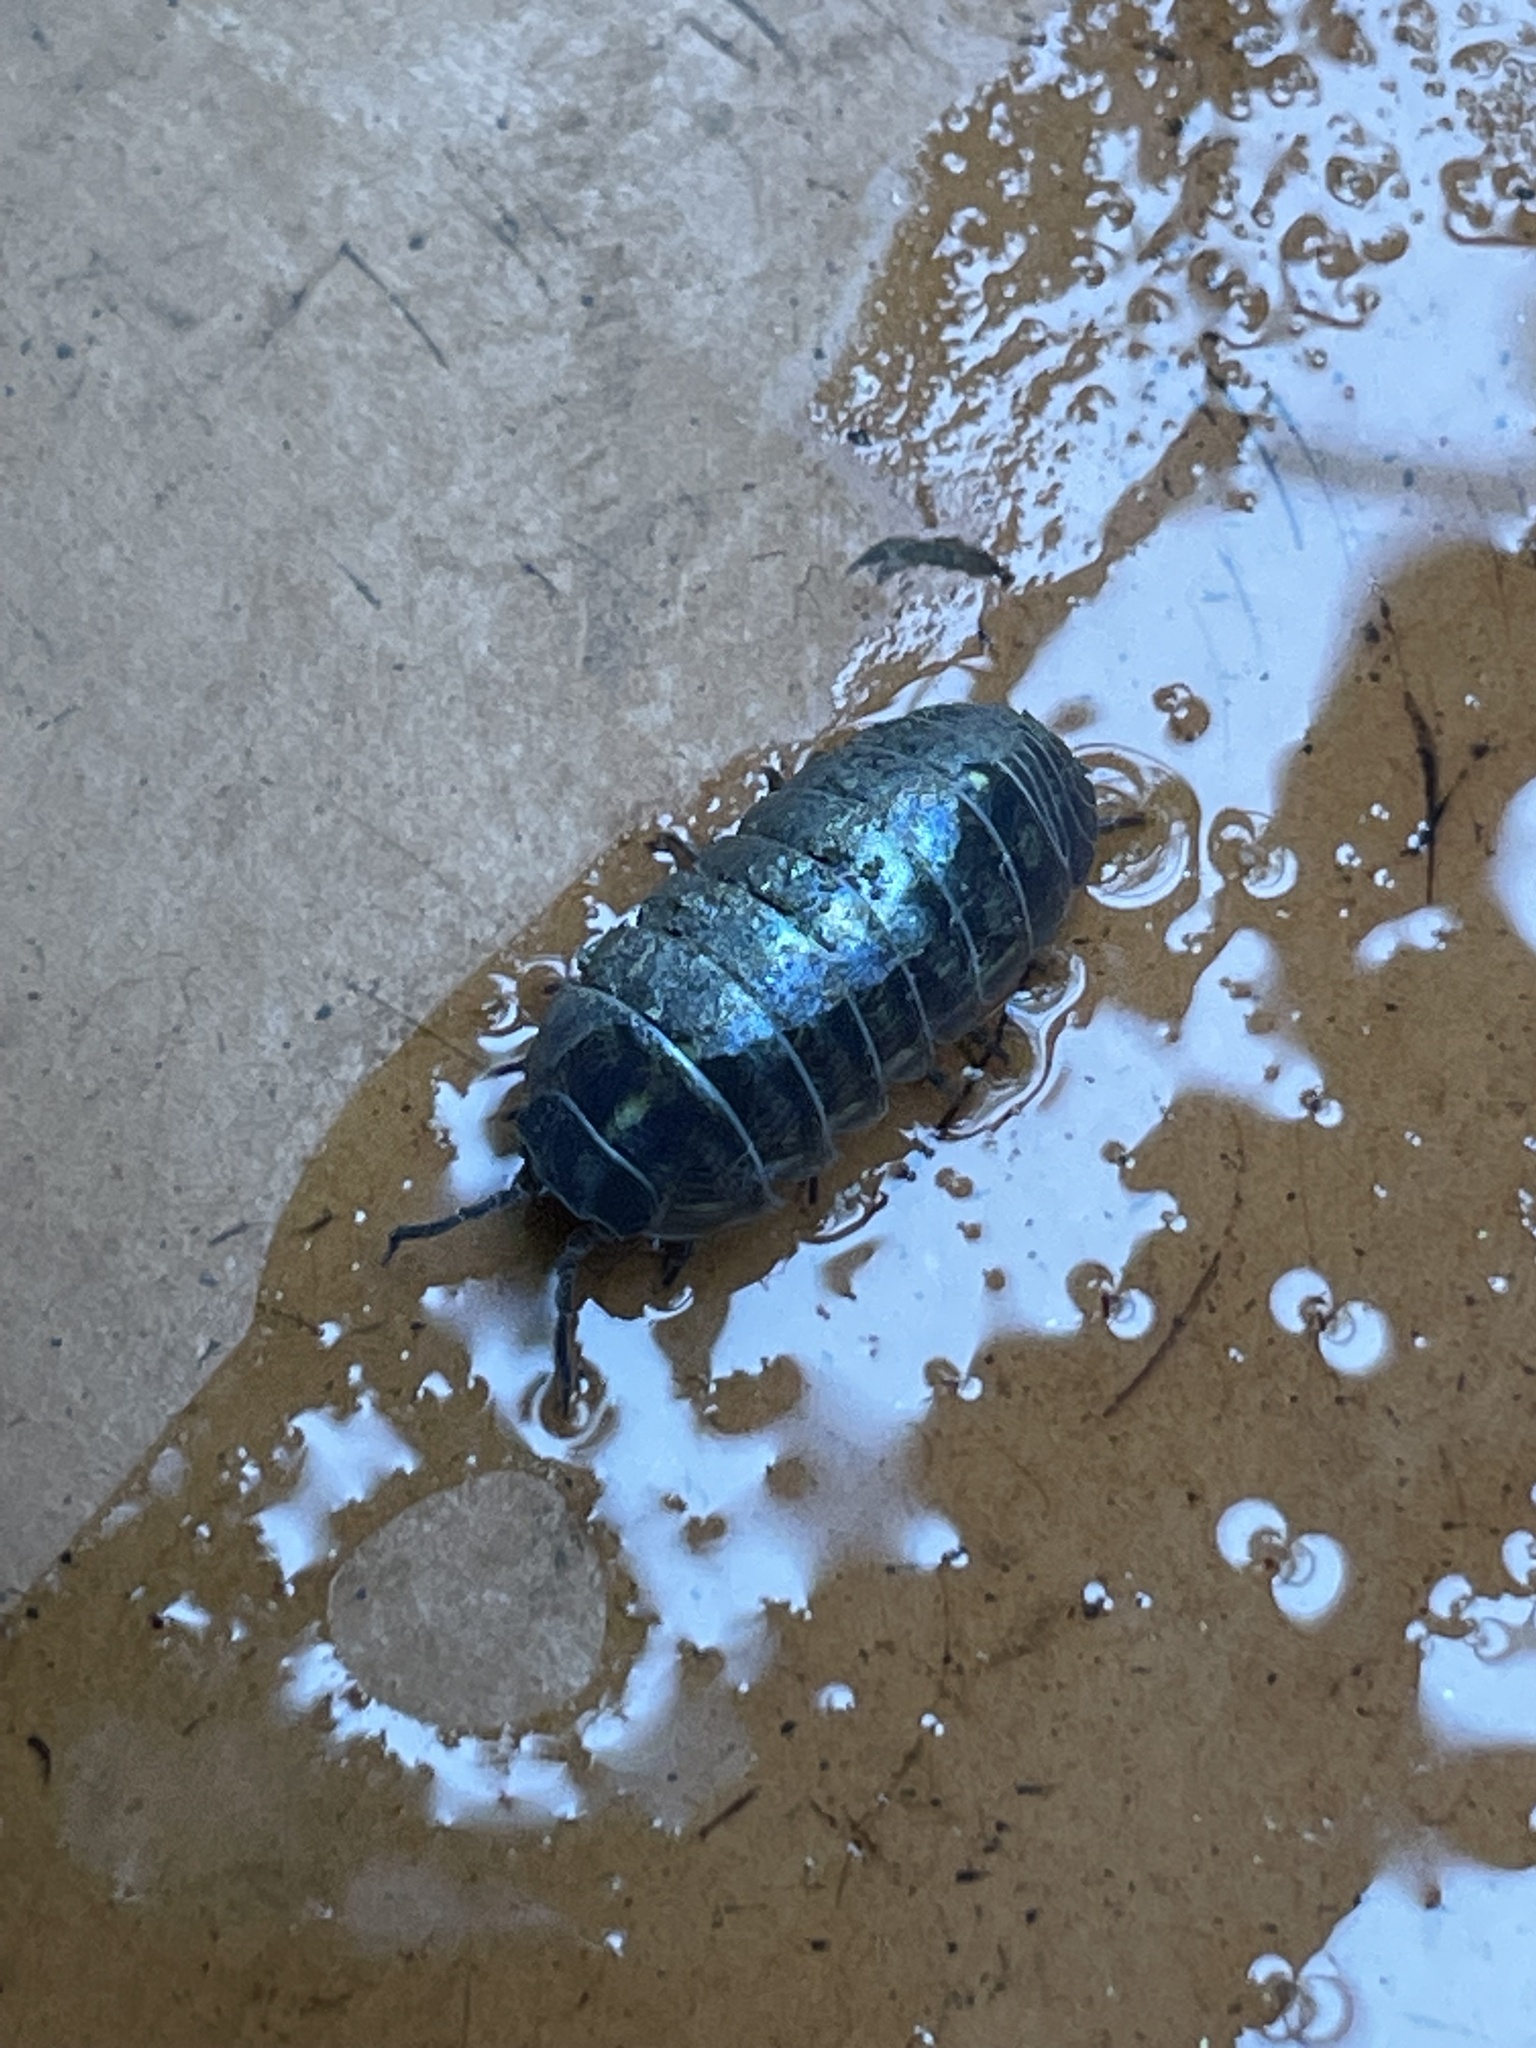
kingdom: Animalia
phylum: Arthropoda
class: Malacostraca
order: Isopoda
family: Armadillidiidae
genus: Armadillidium
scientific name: Armadillidium vulgare
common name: Common pill woodlouse
